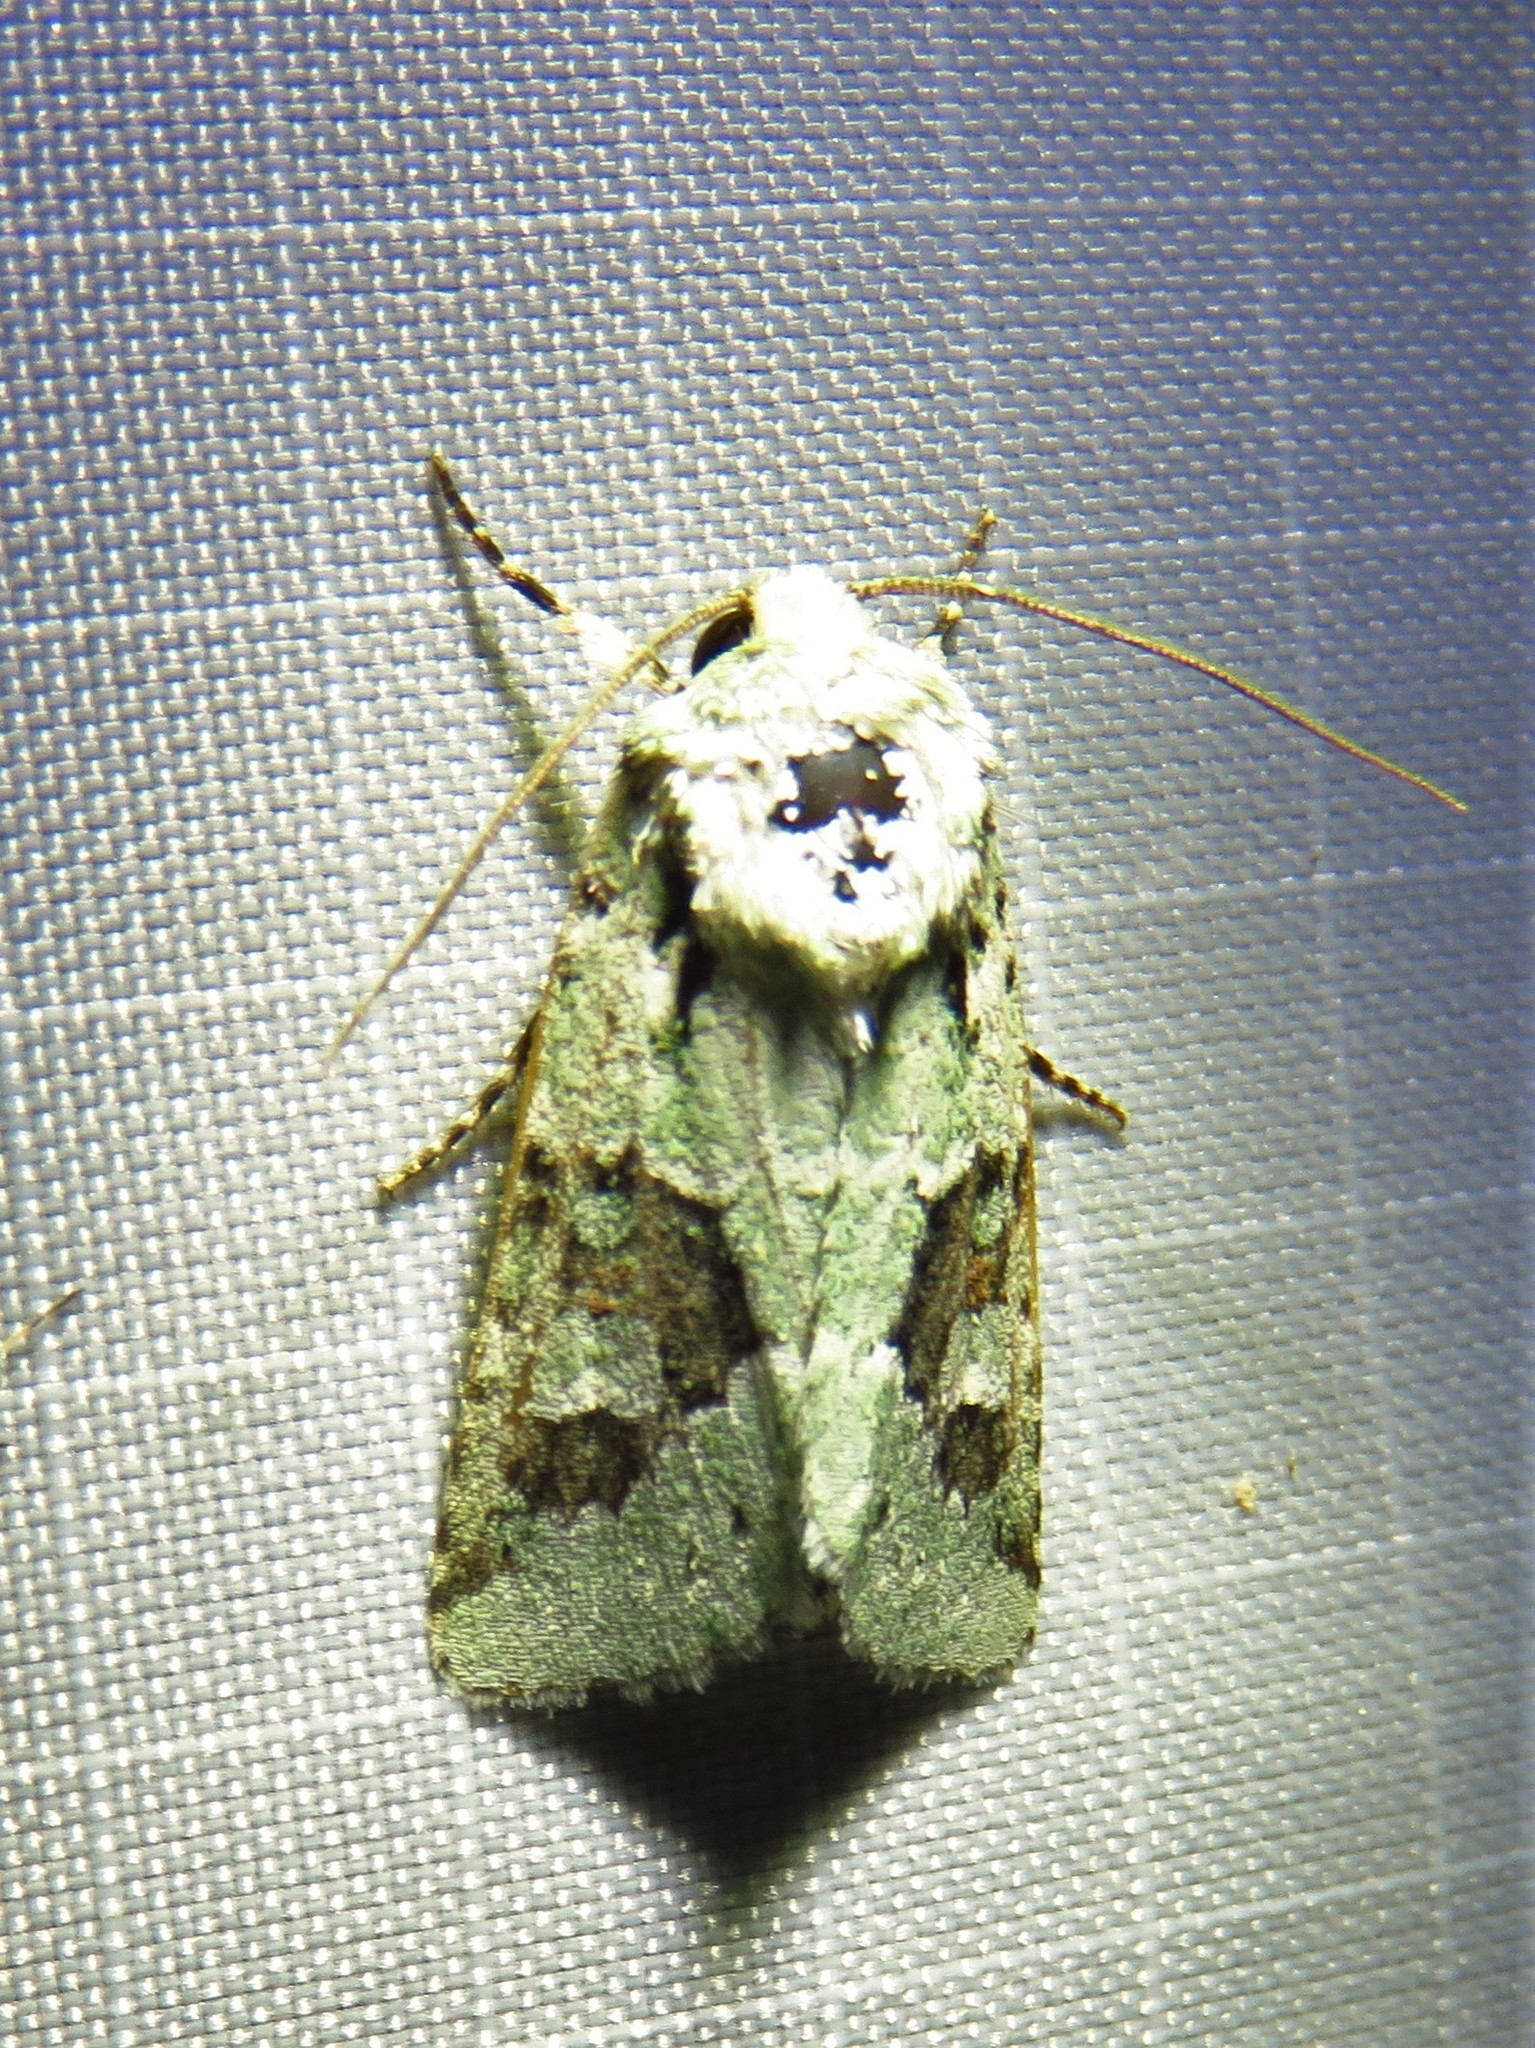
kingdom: Animalia
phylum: Arthropoda
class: Insecta
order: Lepidoptera
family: Noctuidae
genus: Lacinipolia
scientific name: Lacinipolia laudabilis
